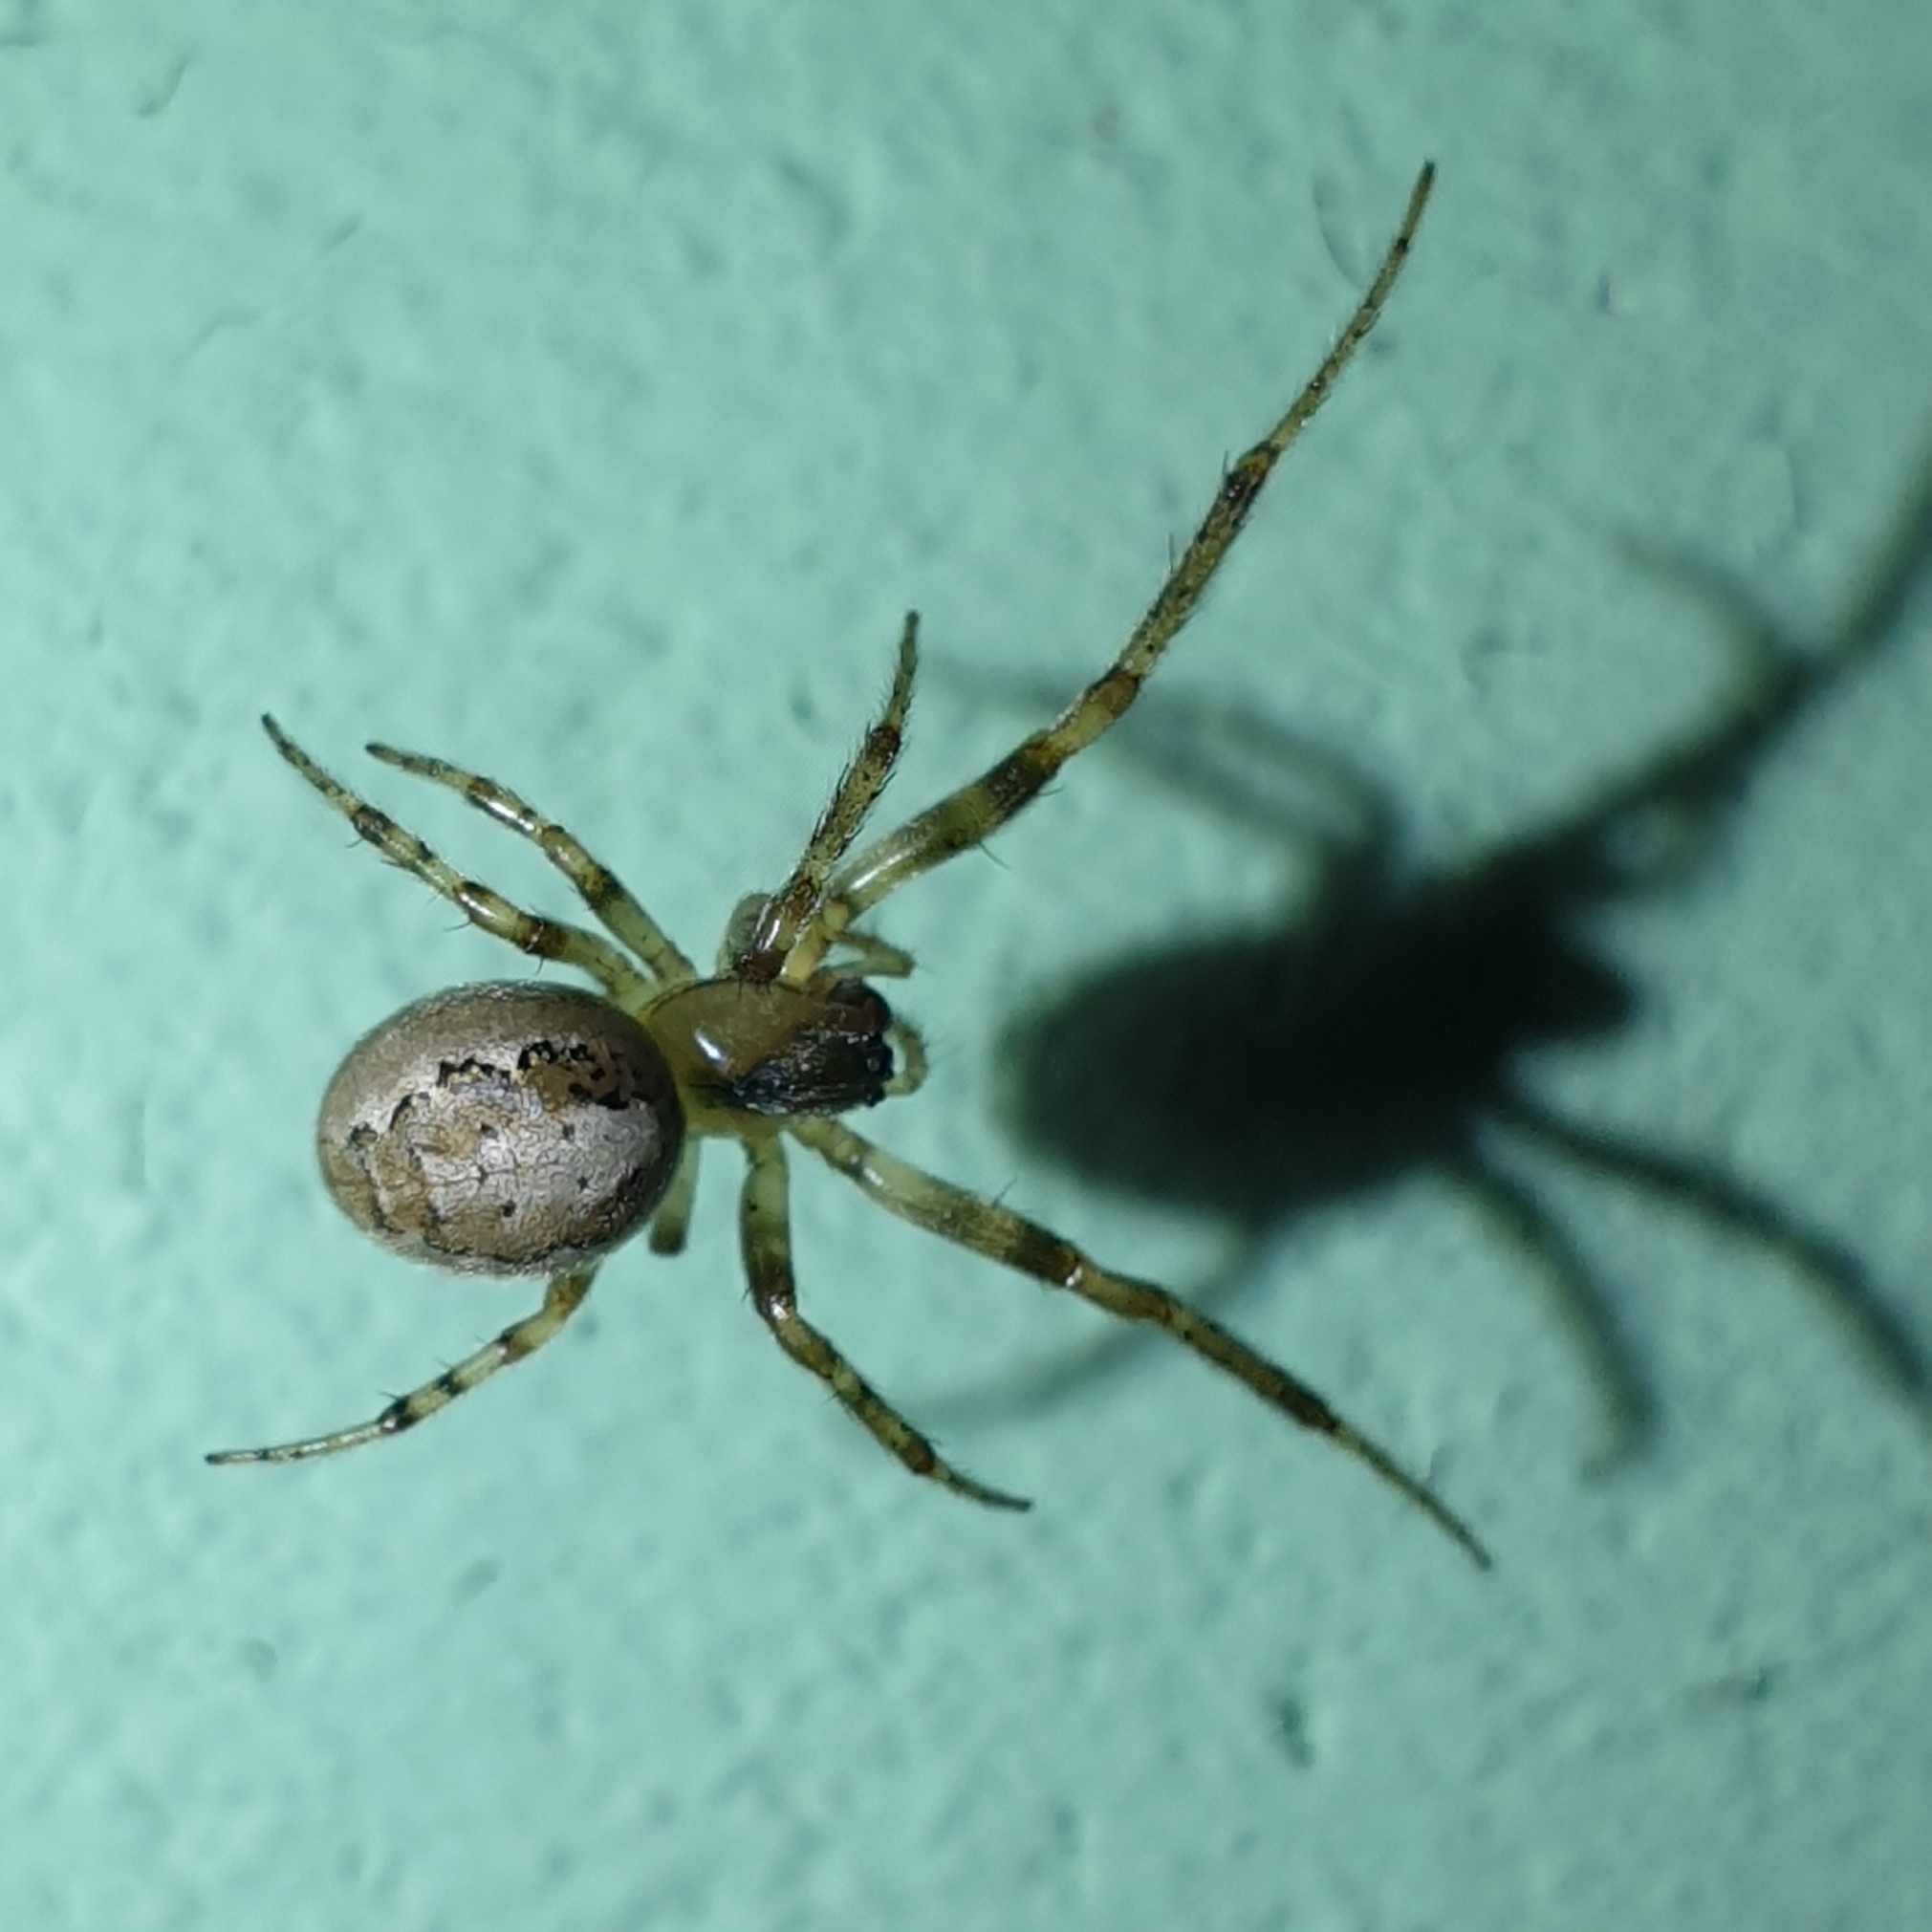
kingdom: Animalia
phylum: Arthropoda
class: Arachnida
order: Araneae
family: Araneidae
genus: Zygiella
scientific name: Zygiella x-notata
